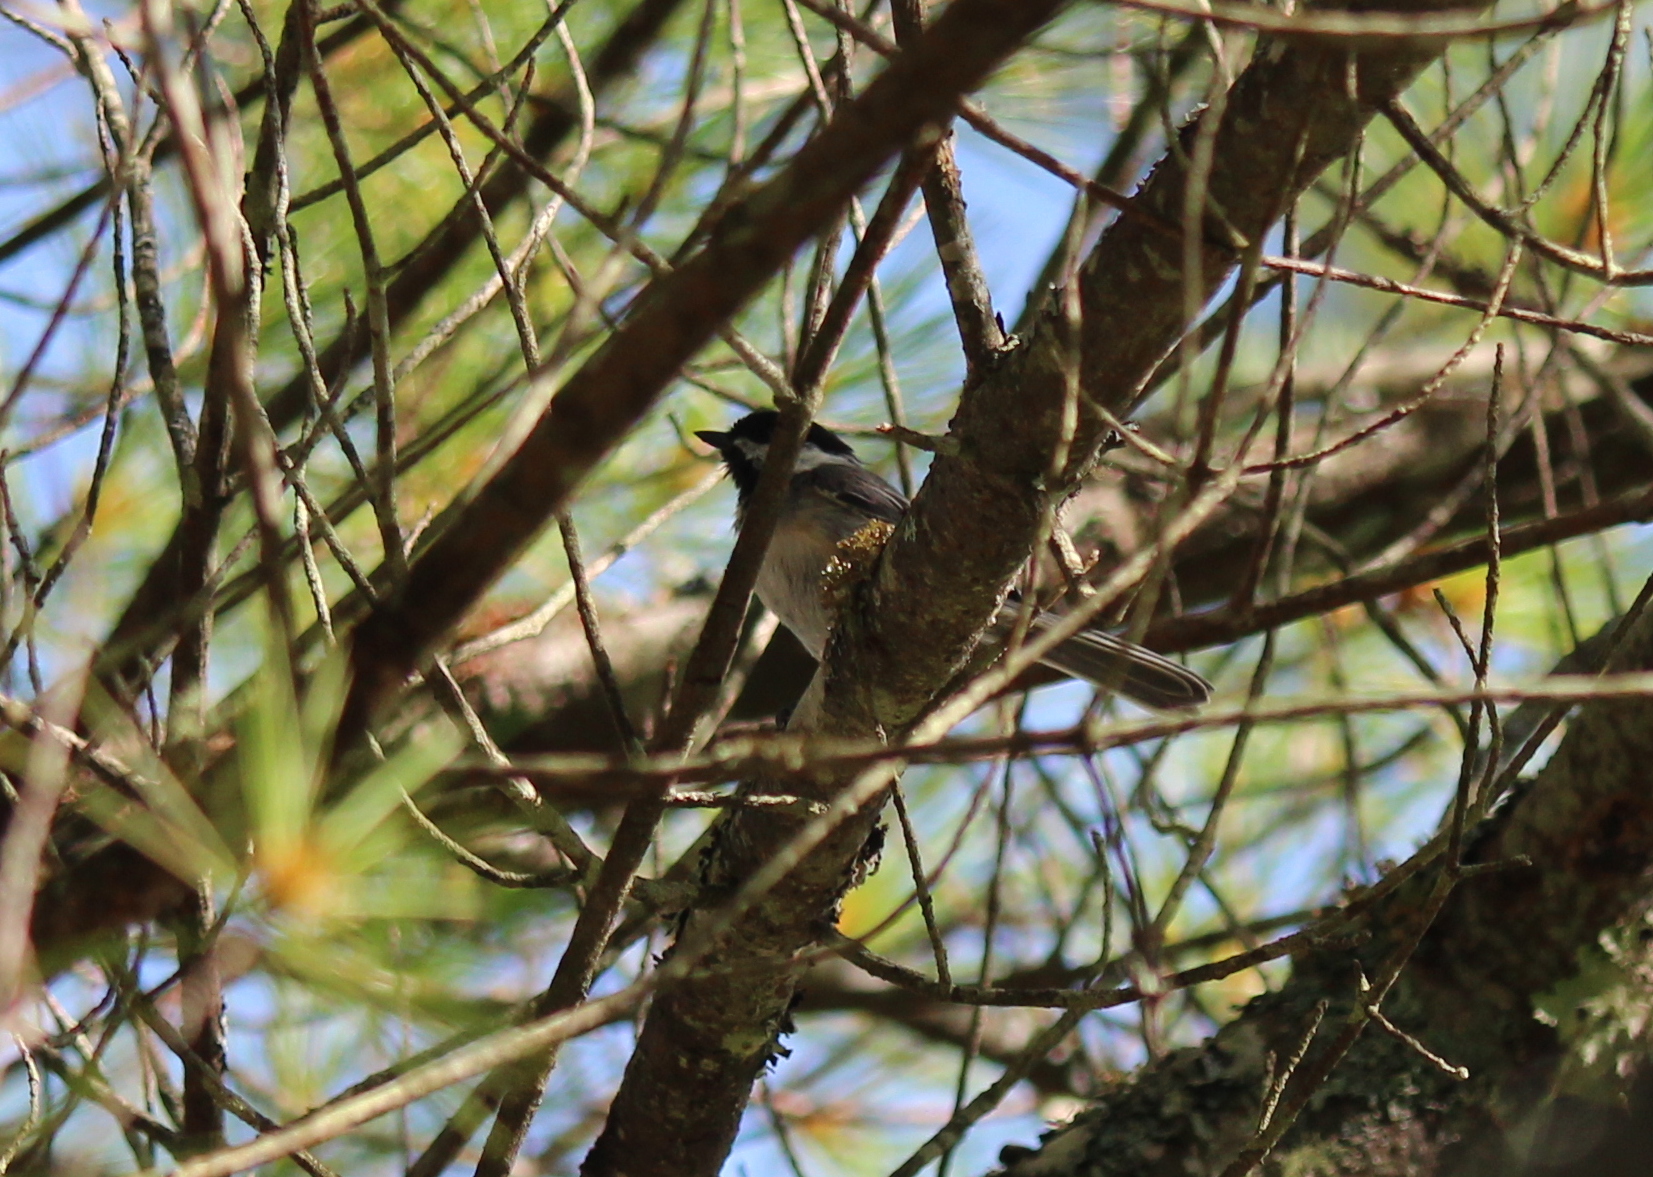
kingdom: Animalia
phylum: Chordata
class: Aves
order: Passeriformes
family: Paridae
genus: Poecile
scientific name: Poecile atricapillus
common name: Black-capped chickadee
